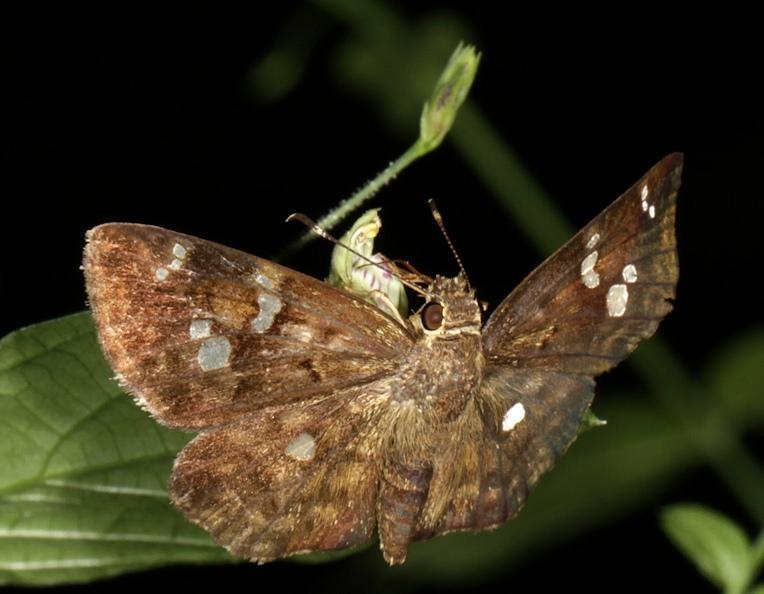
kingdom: Animalia
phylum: Arthropoda
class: Insecta
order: Lepidoptera
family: Hesperiidae
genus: Sarangesa
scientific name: Sarangesa motozi
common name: Forest elfin
